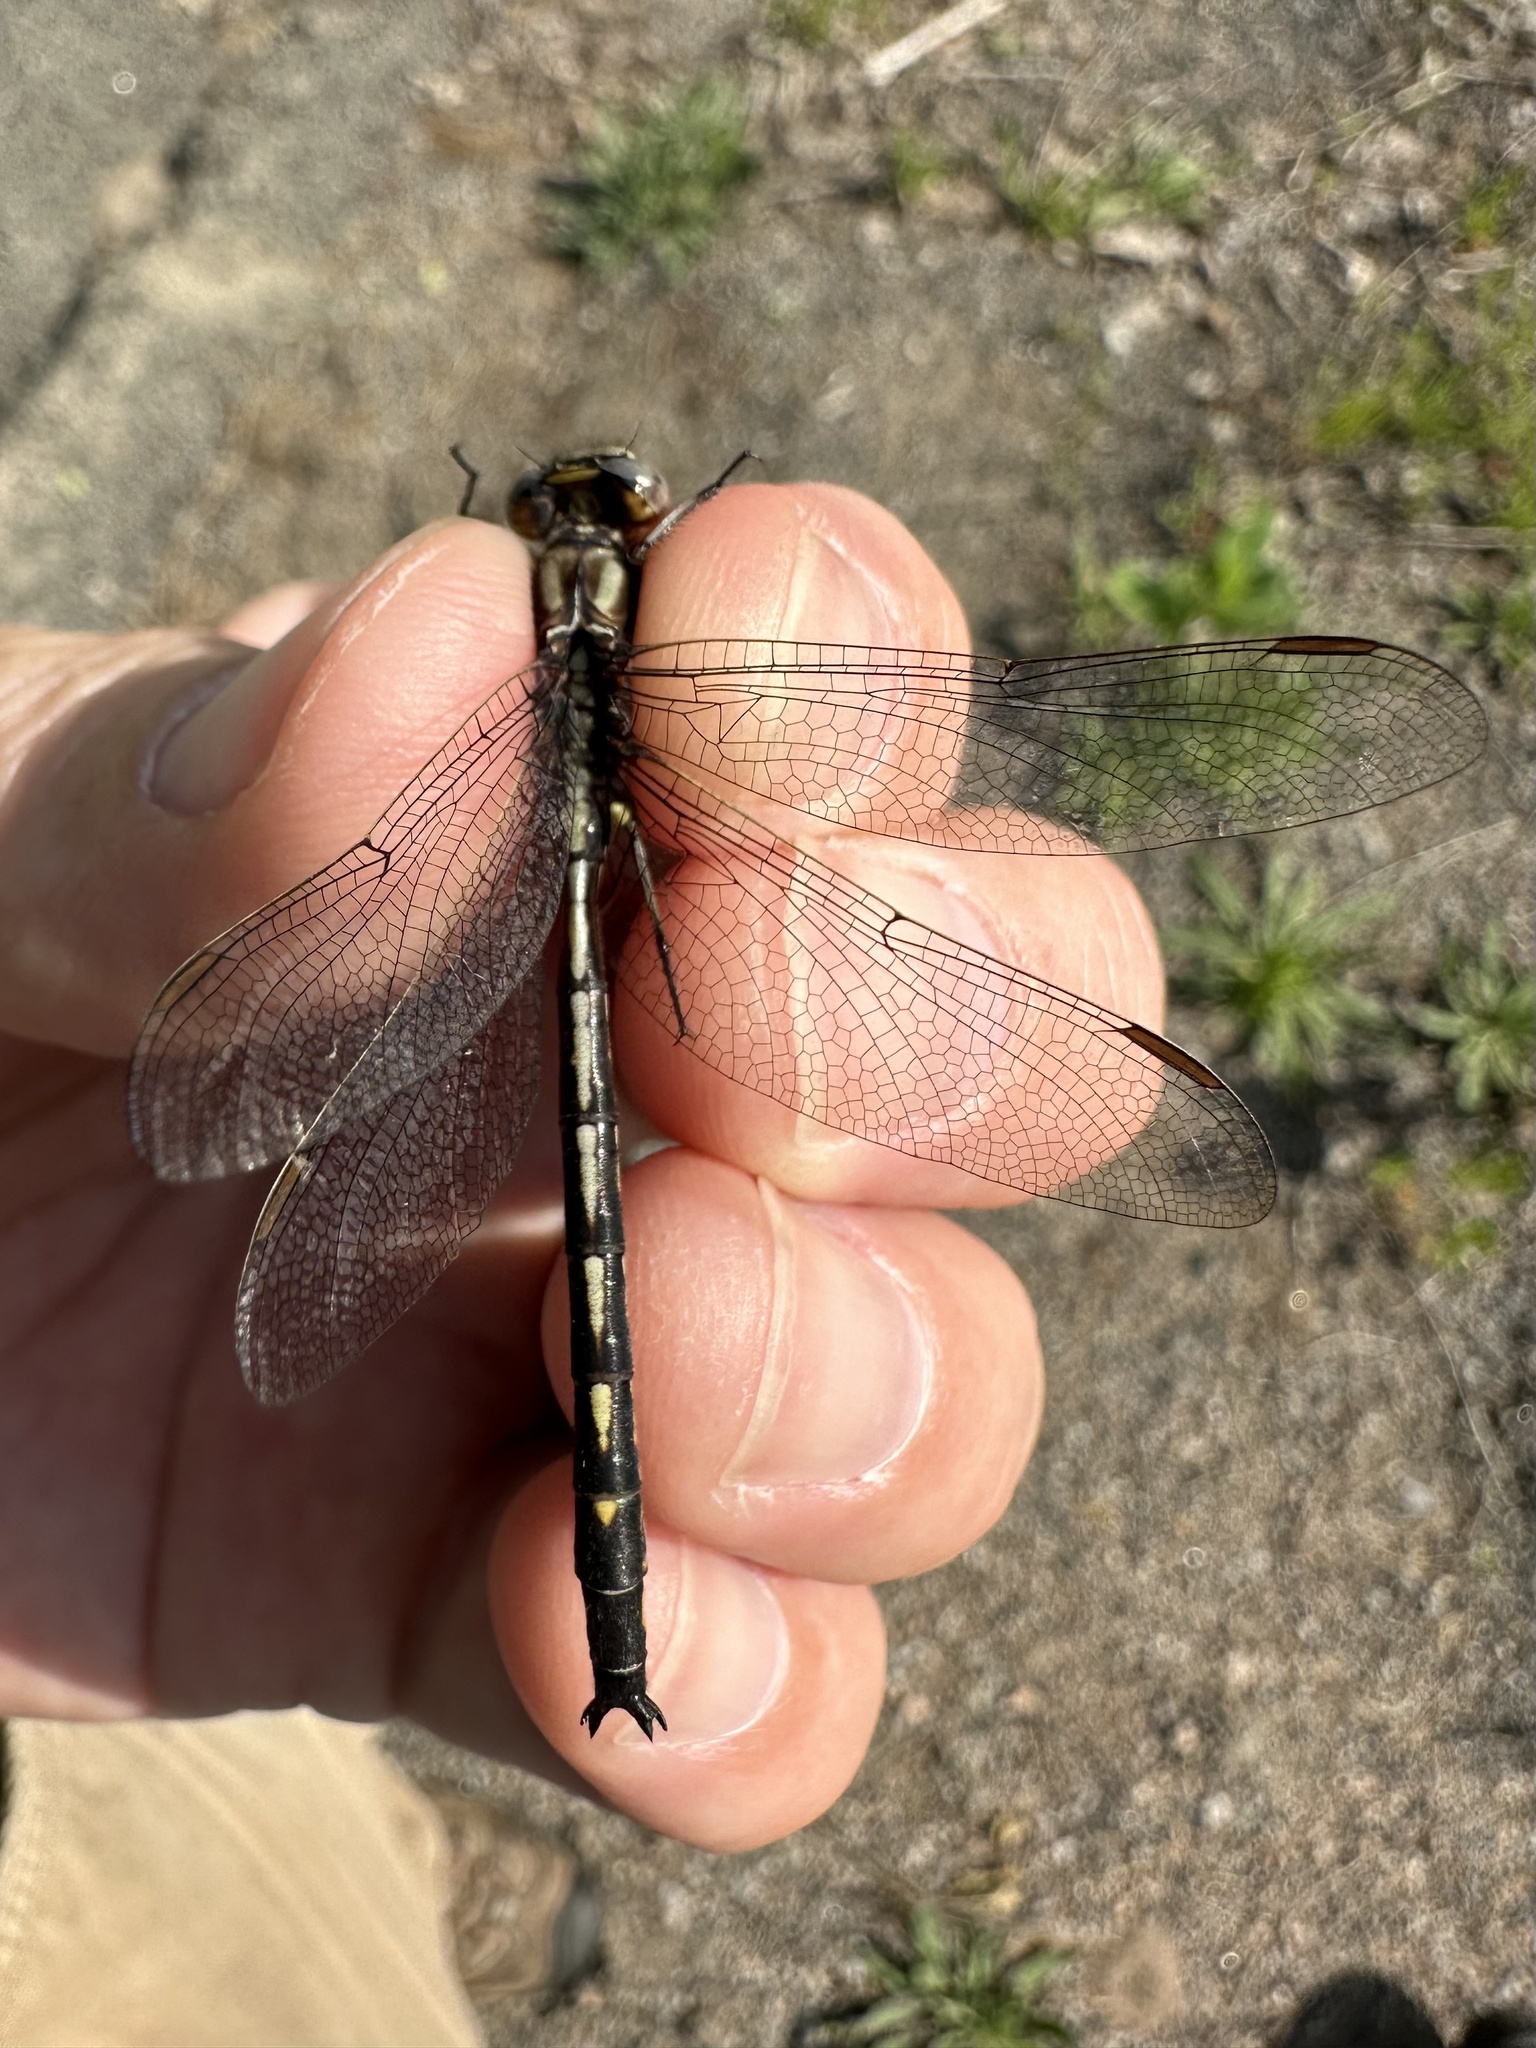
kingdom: Animalia
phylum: Arthropoda
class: Insecta
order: Odonata
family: Gomphidae
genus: Phanogomphus
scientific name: Phanogomphus spicatus
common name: Dusky clubtail
